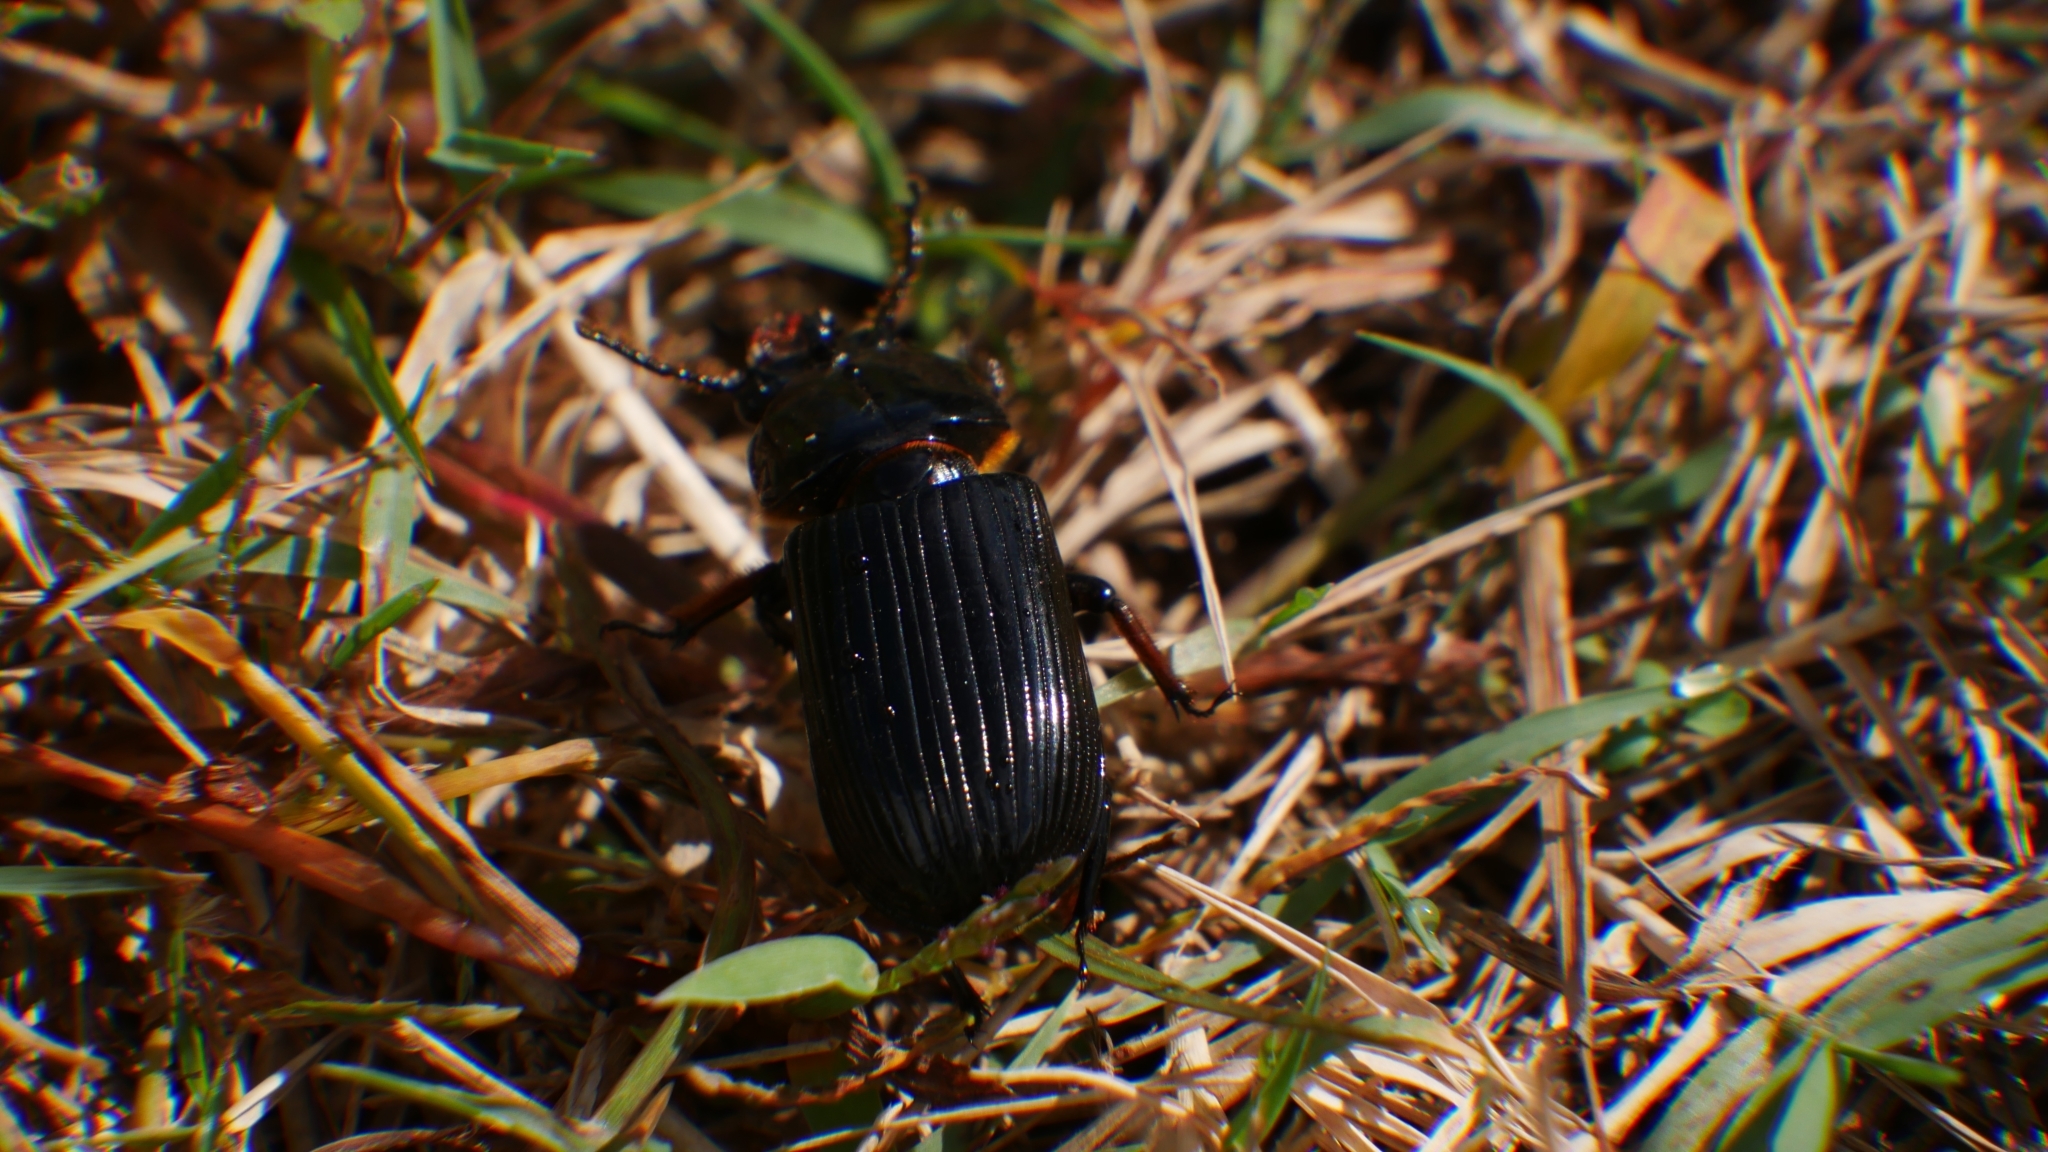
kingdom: Animalia
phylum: Arthropoda
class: Insecta
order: Coleoptera
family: Passalidae
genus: Odontotaenius
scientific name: Odontotaenius disjunctus
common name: Patent leather beetle
